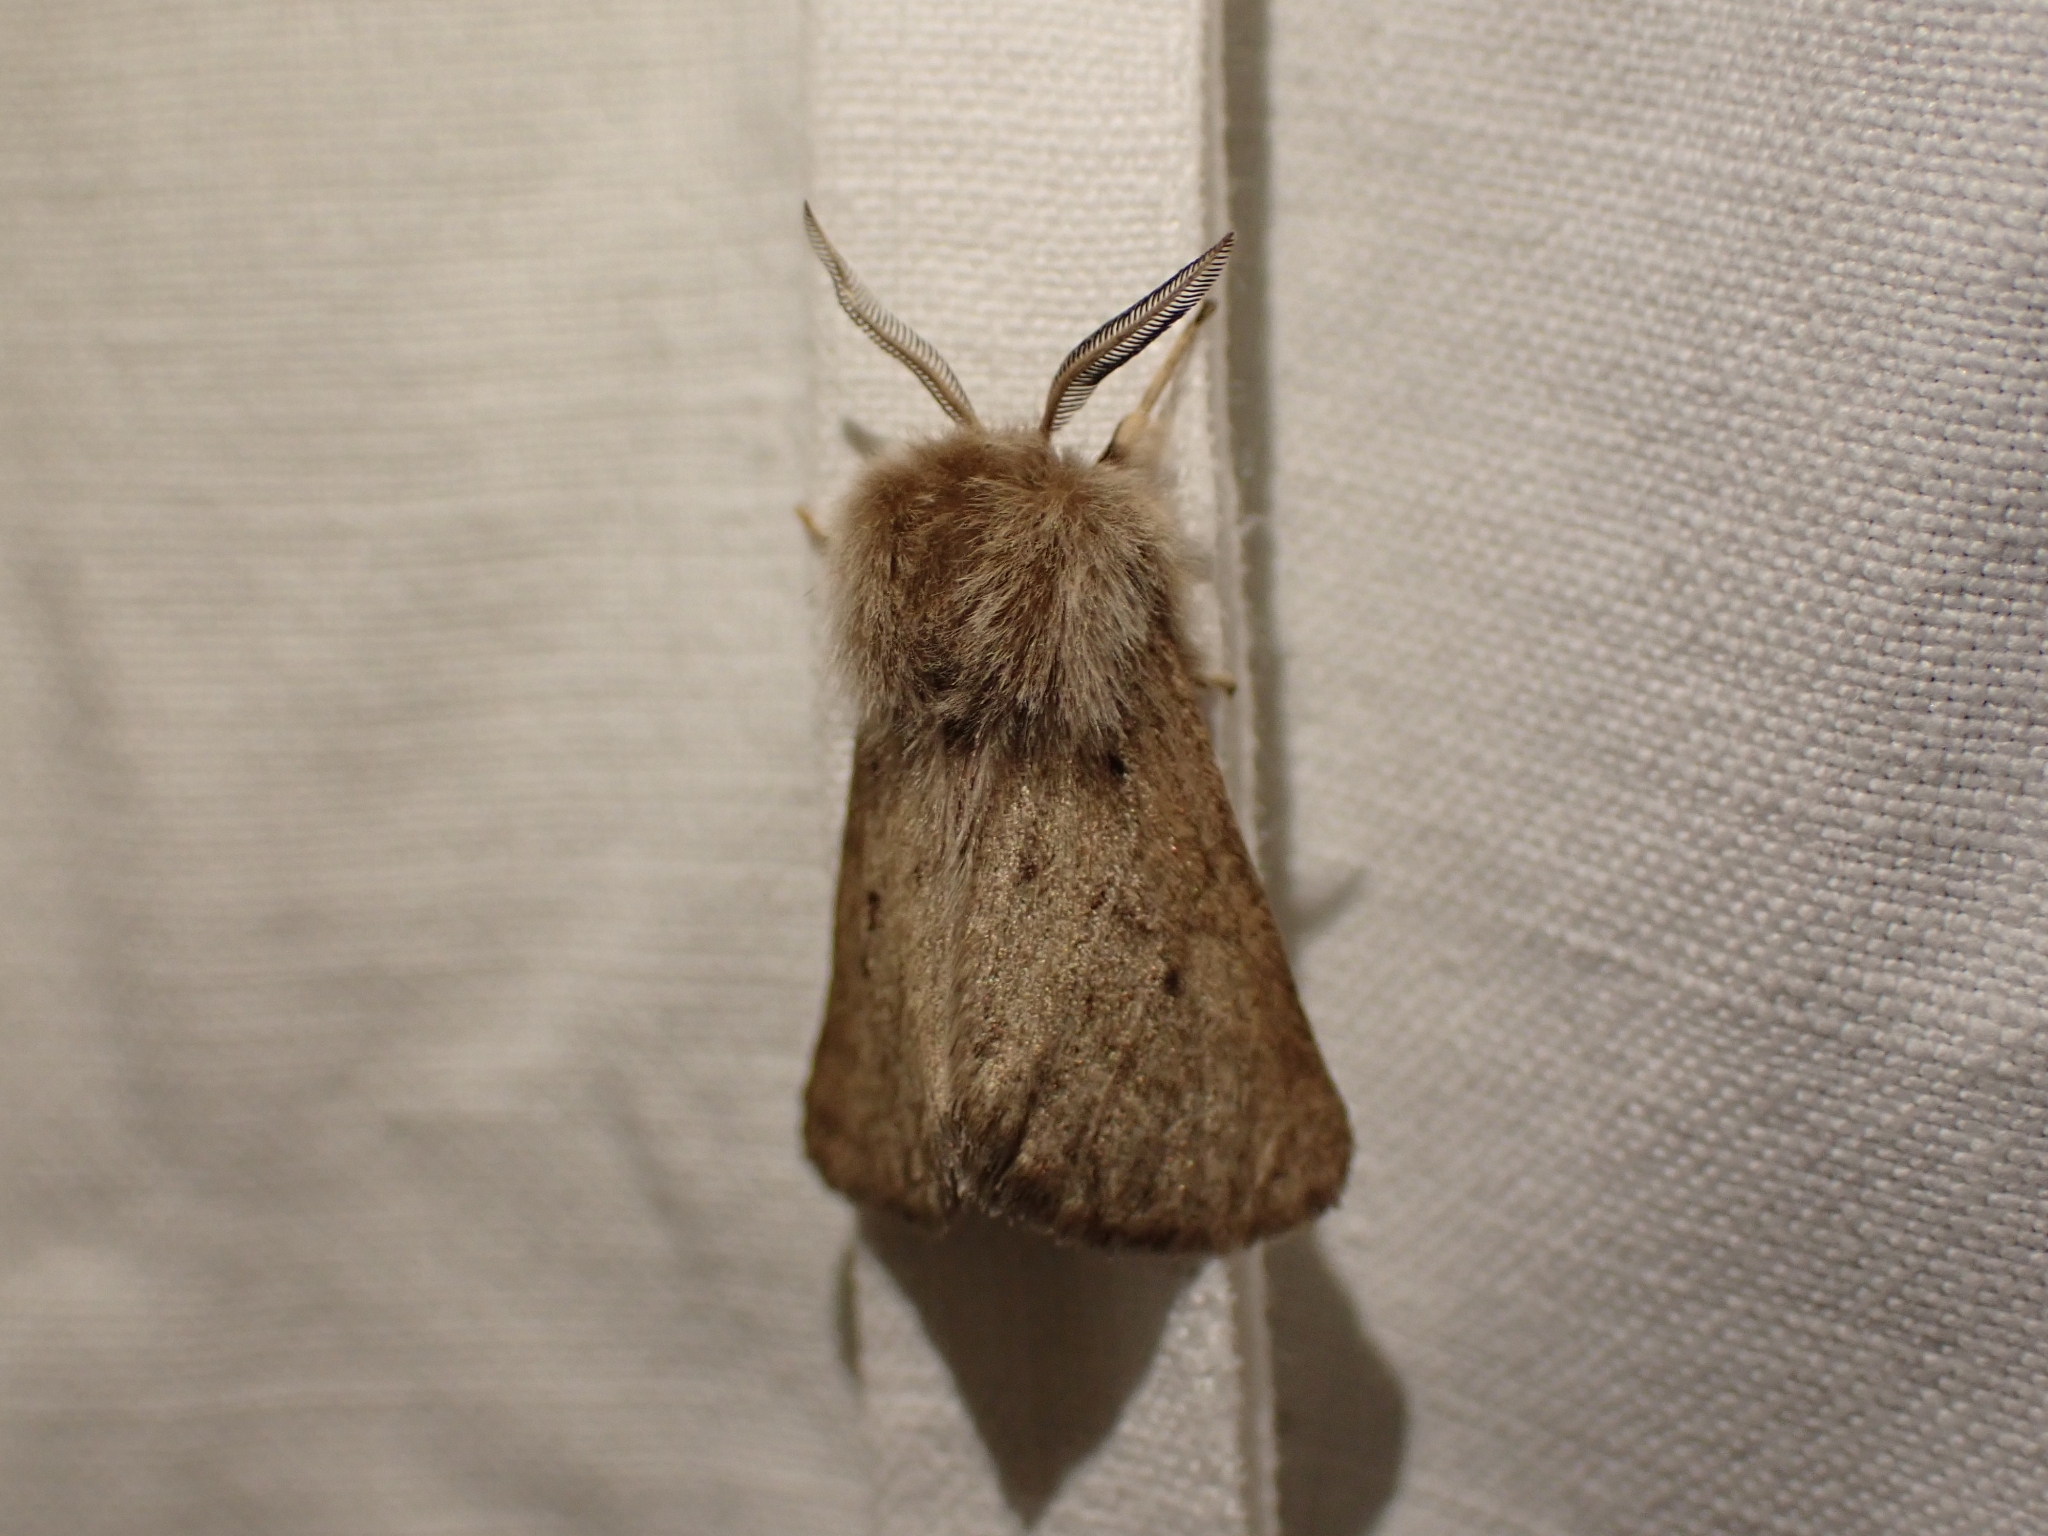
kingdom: Animalia
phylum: Arthropoda
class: Insecta
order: Lepidoptera
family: Erebidae
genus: Spilosoma
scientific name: Spilosoma vagans
